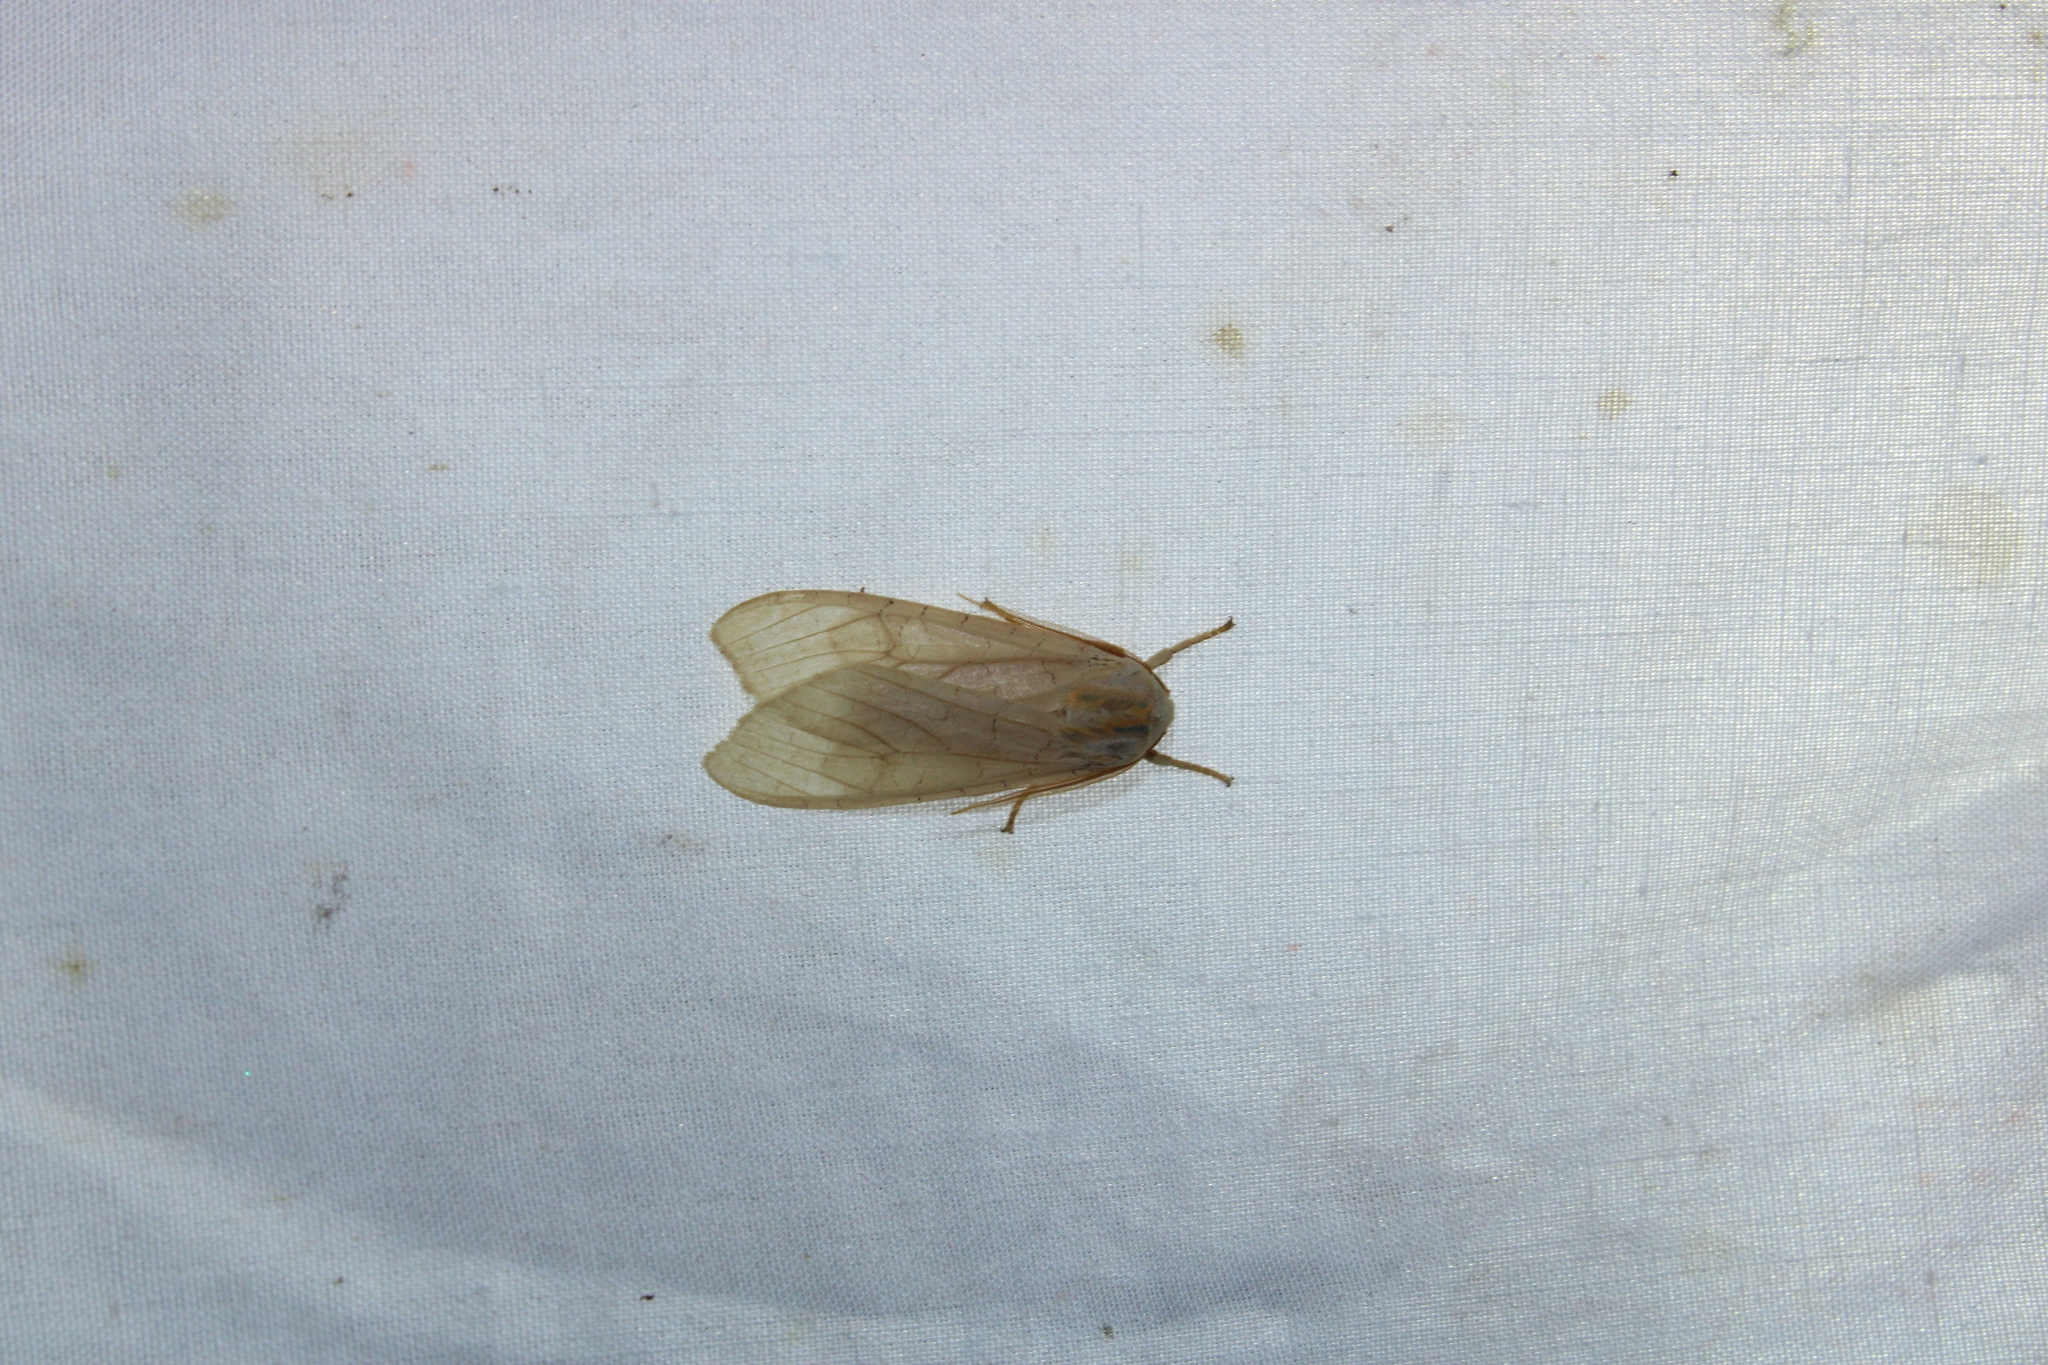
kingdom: Animalia
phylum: Arthropoda
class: Insecta
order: Lepidoptera
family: Erebidae
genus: Halysidota
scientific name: Halysidota
